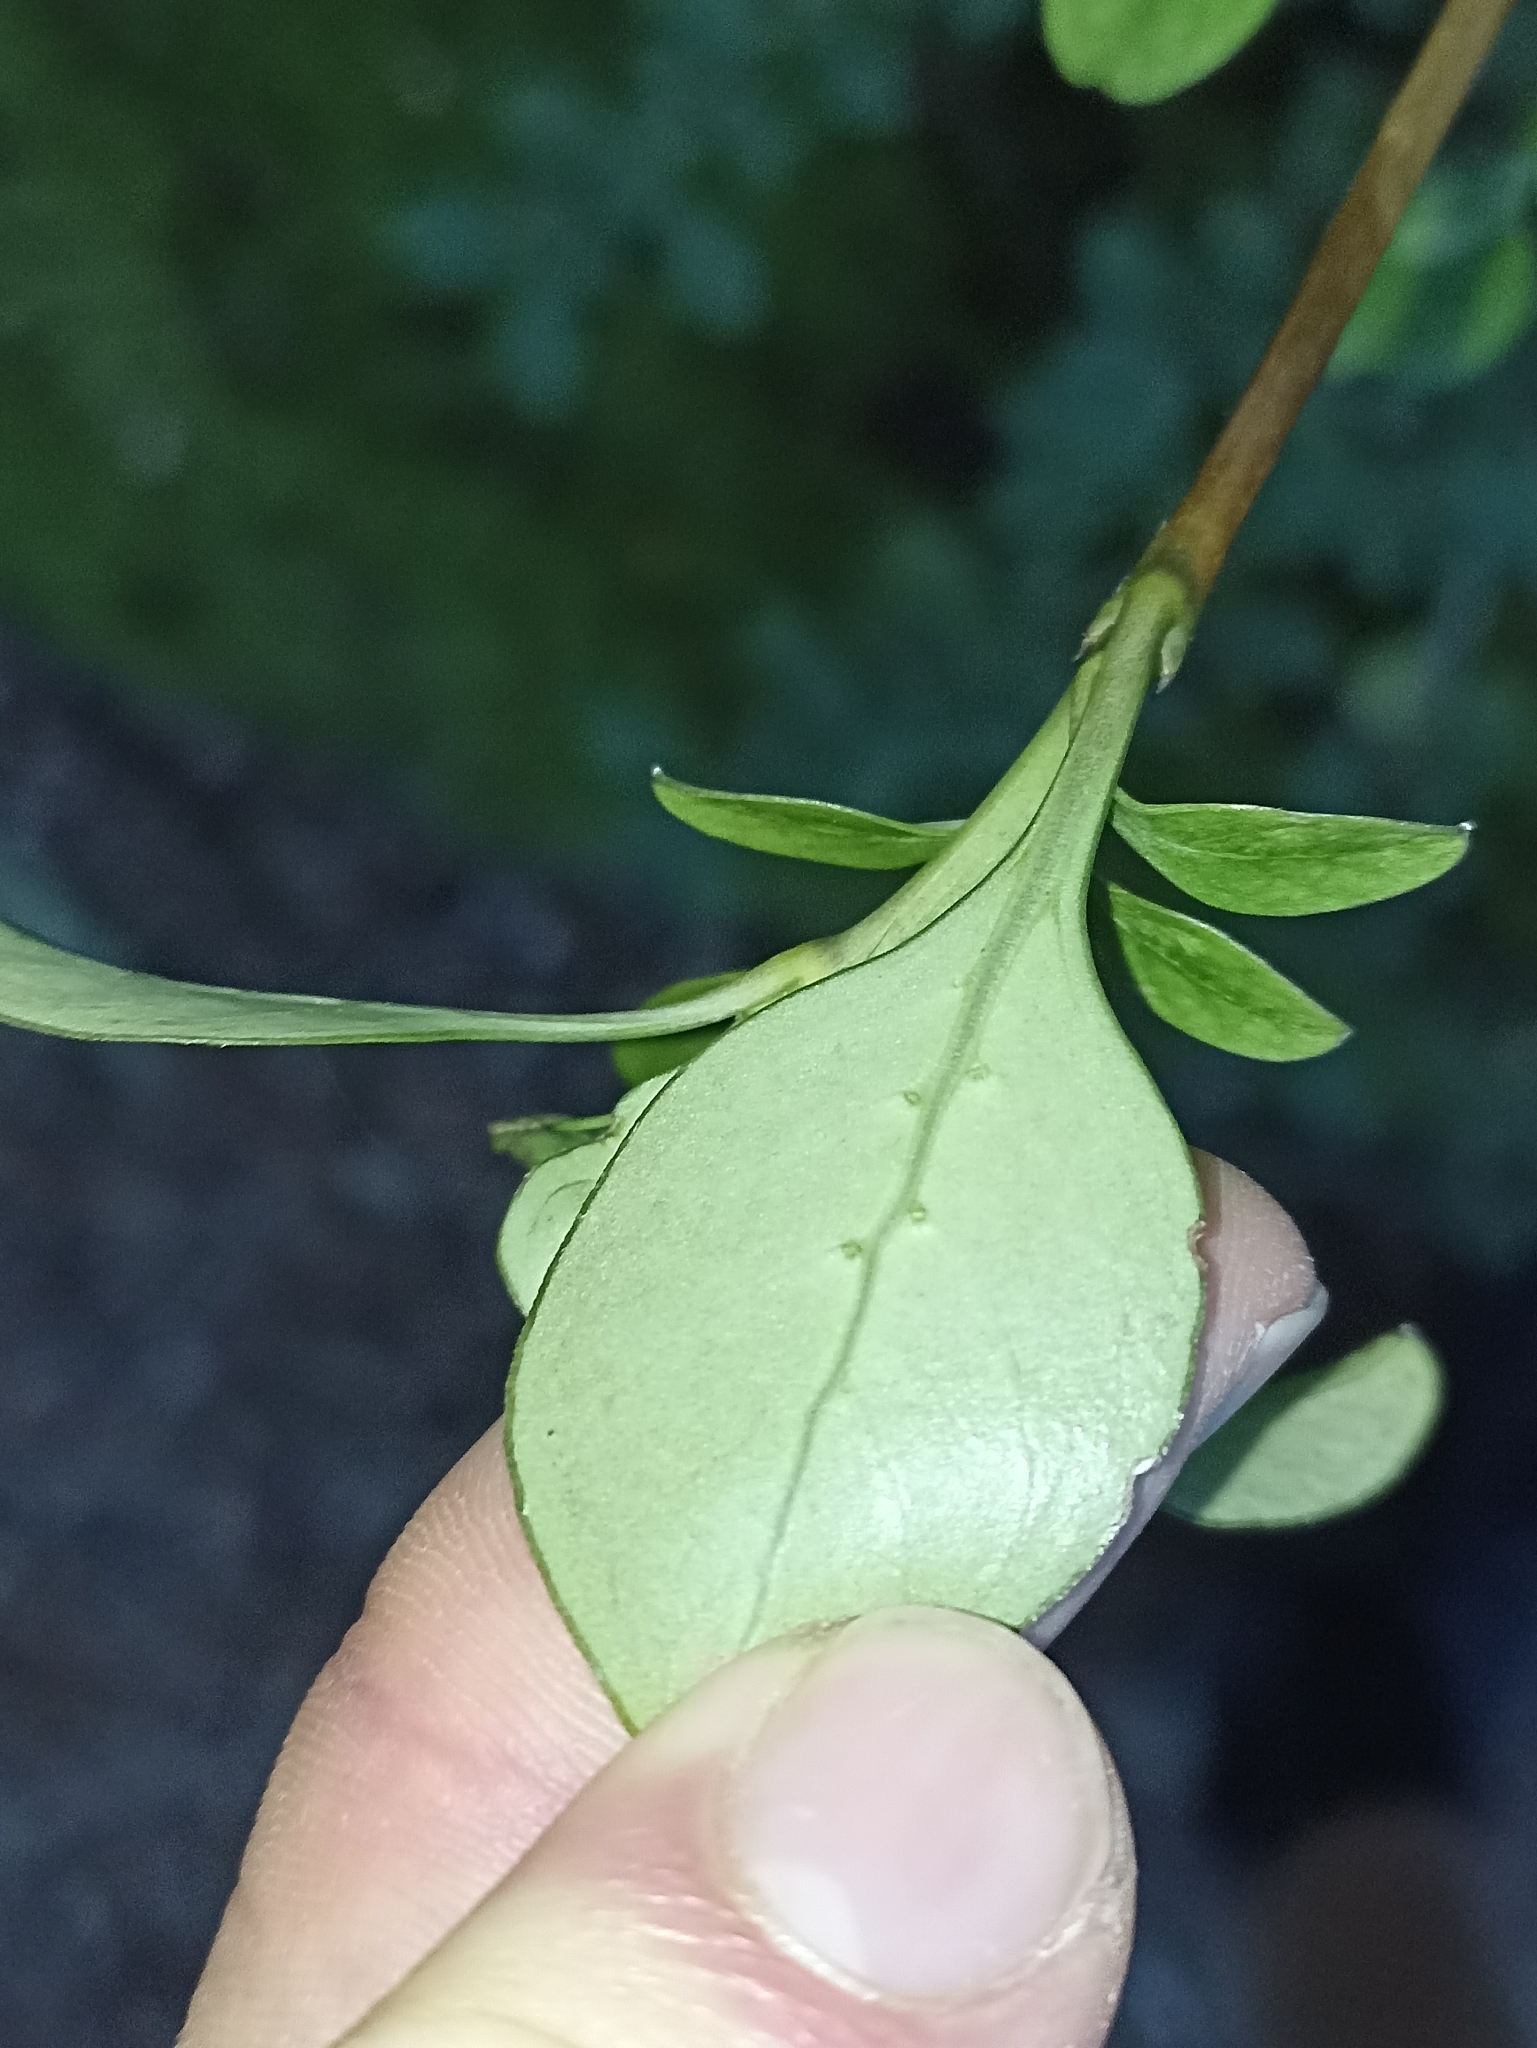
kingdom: Plantae
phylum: Tracheophyta
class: Magnoliopsida
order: Gentianales
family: Rubiaceae
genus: Coprosma
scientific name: Coprosma foetidissima
